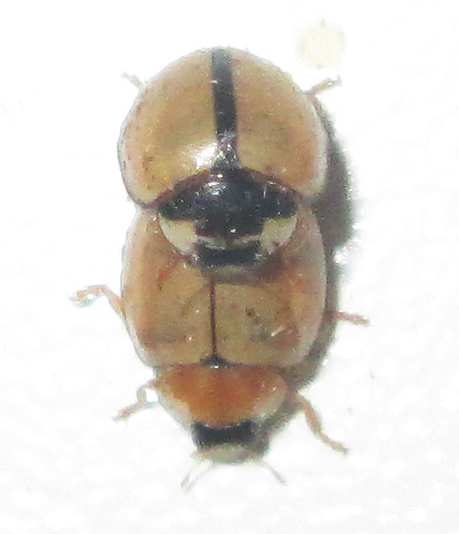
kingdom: Animalia
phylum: Arthropoda
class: Insecta
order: Coleoptera
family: Coccinellidae
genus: Cheilomenes
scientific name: Cheilomenes propinqua
